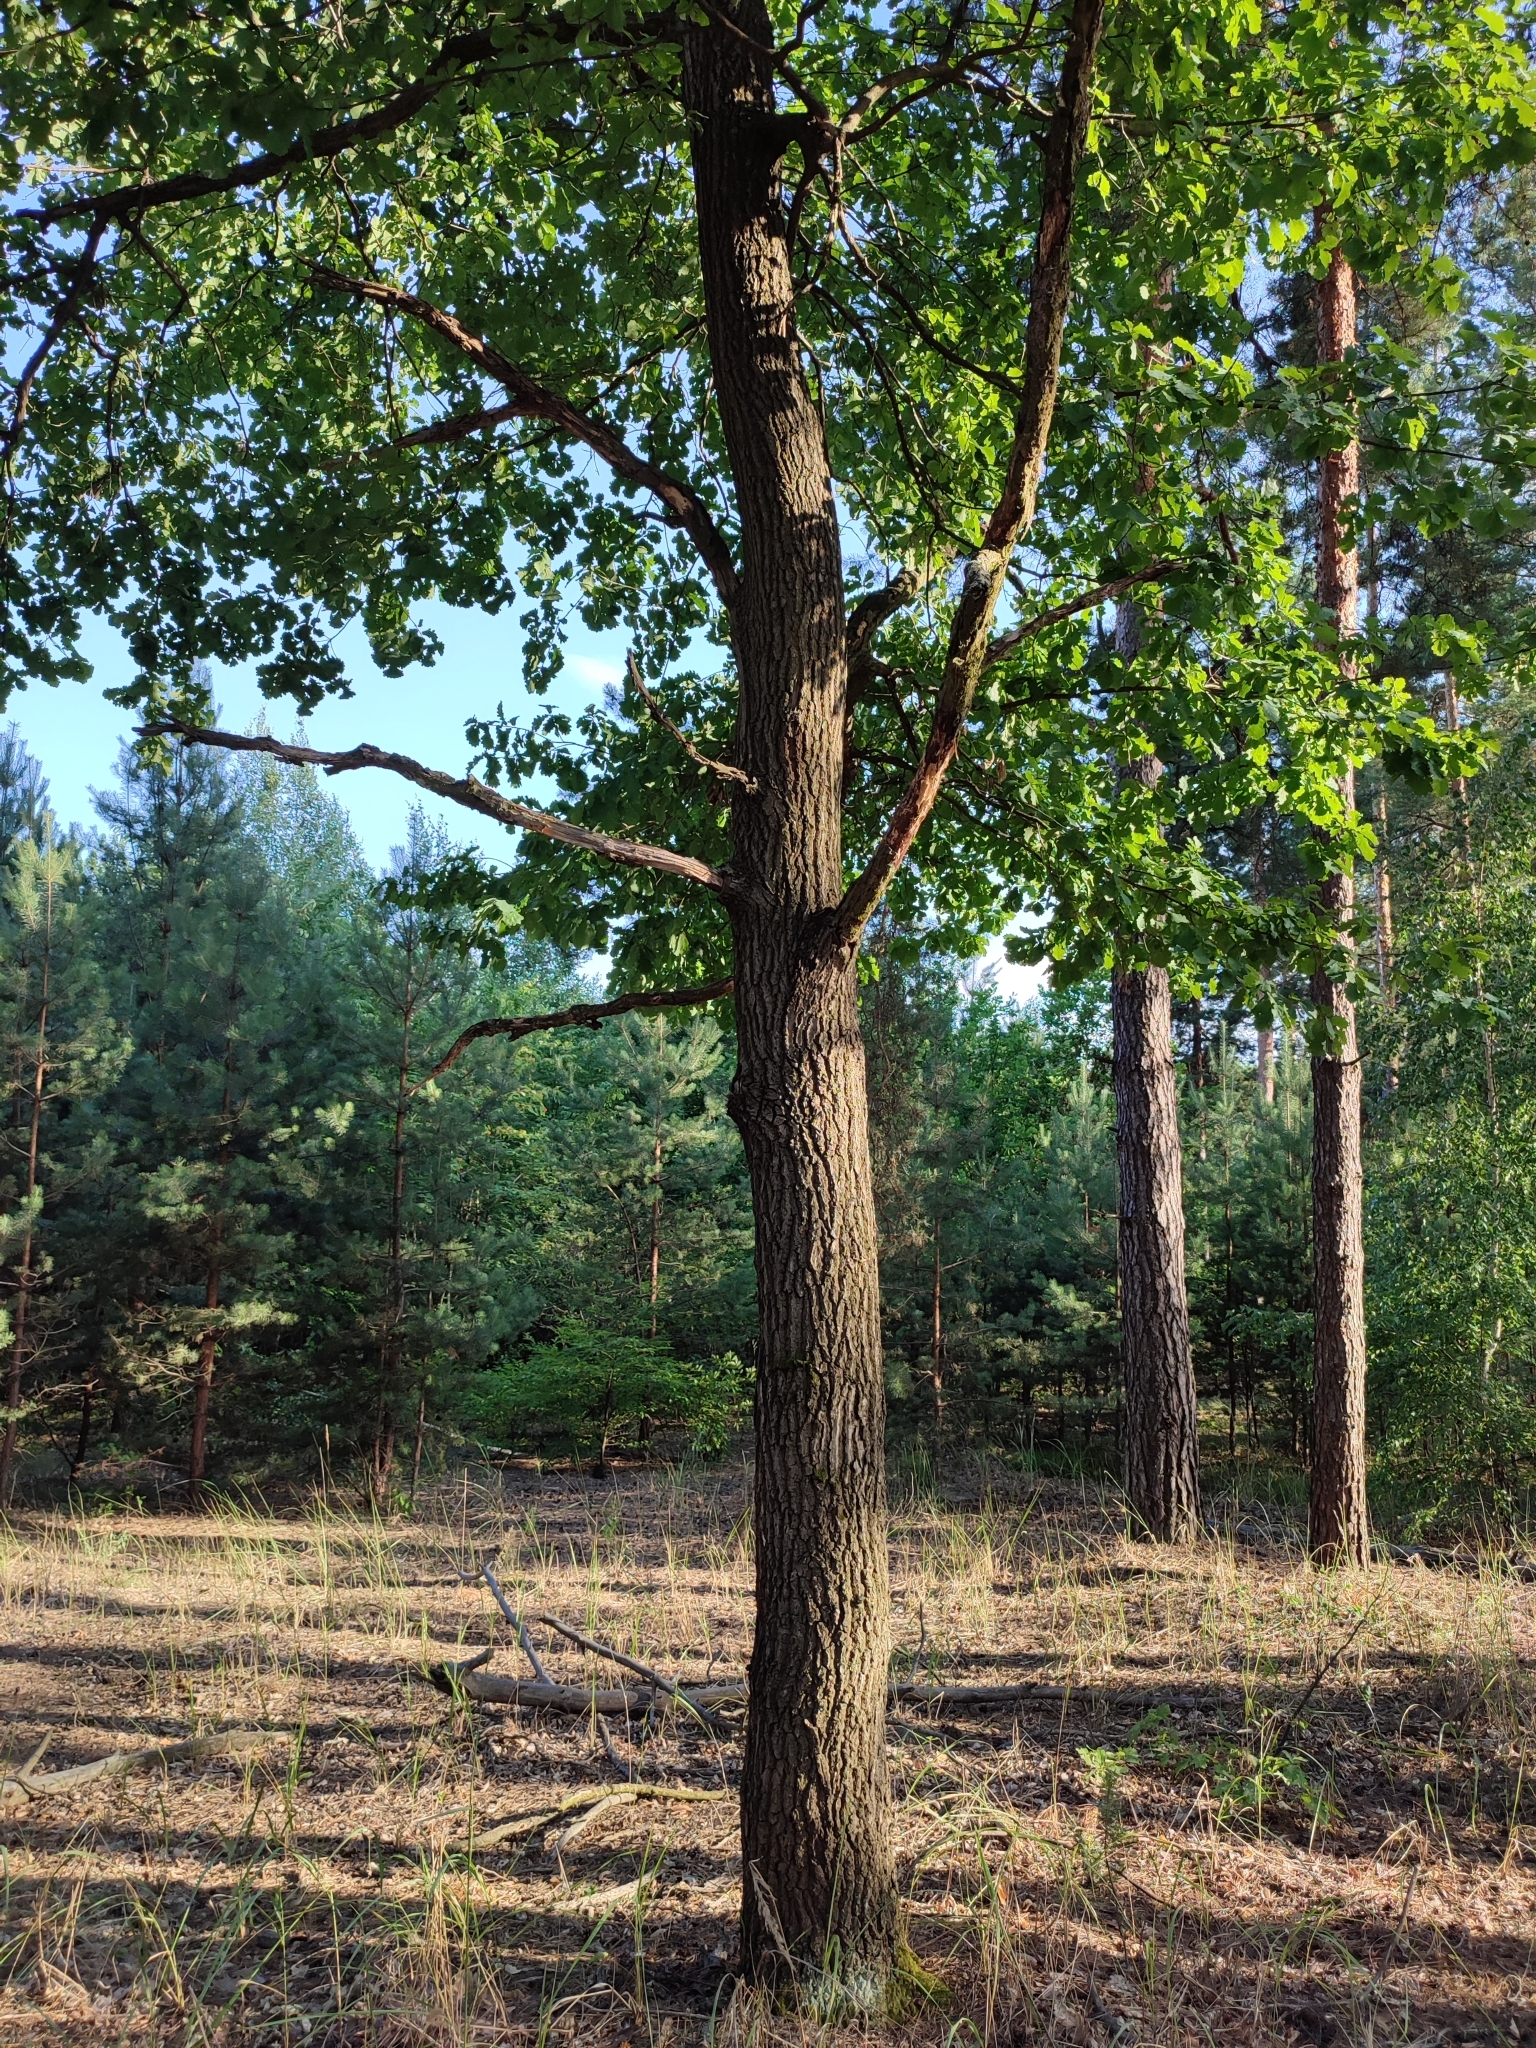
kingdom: Plantae
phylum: Tracheophyta
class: Magnoliopsida
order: Fagales
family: Fagaceae
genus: Quercus
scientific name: Quercus robur
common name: Pedunculate oak
